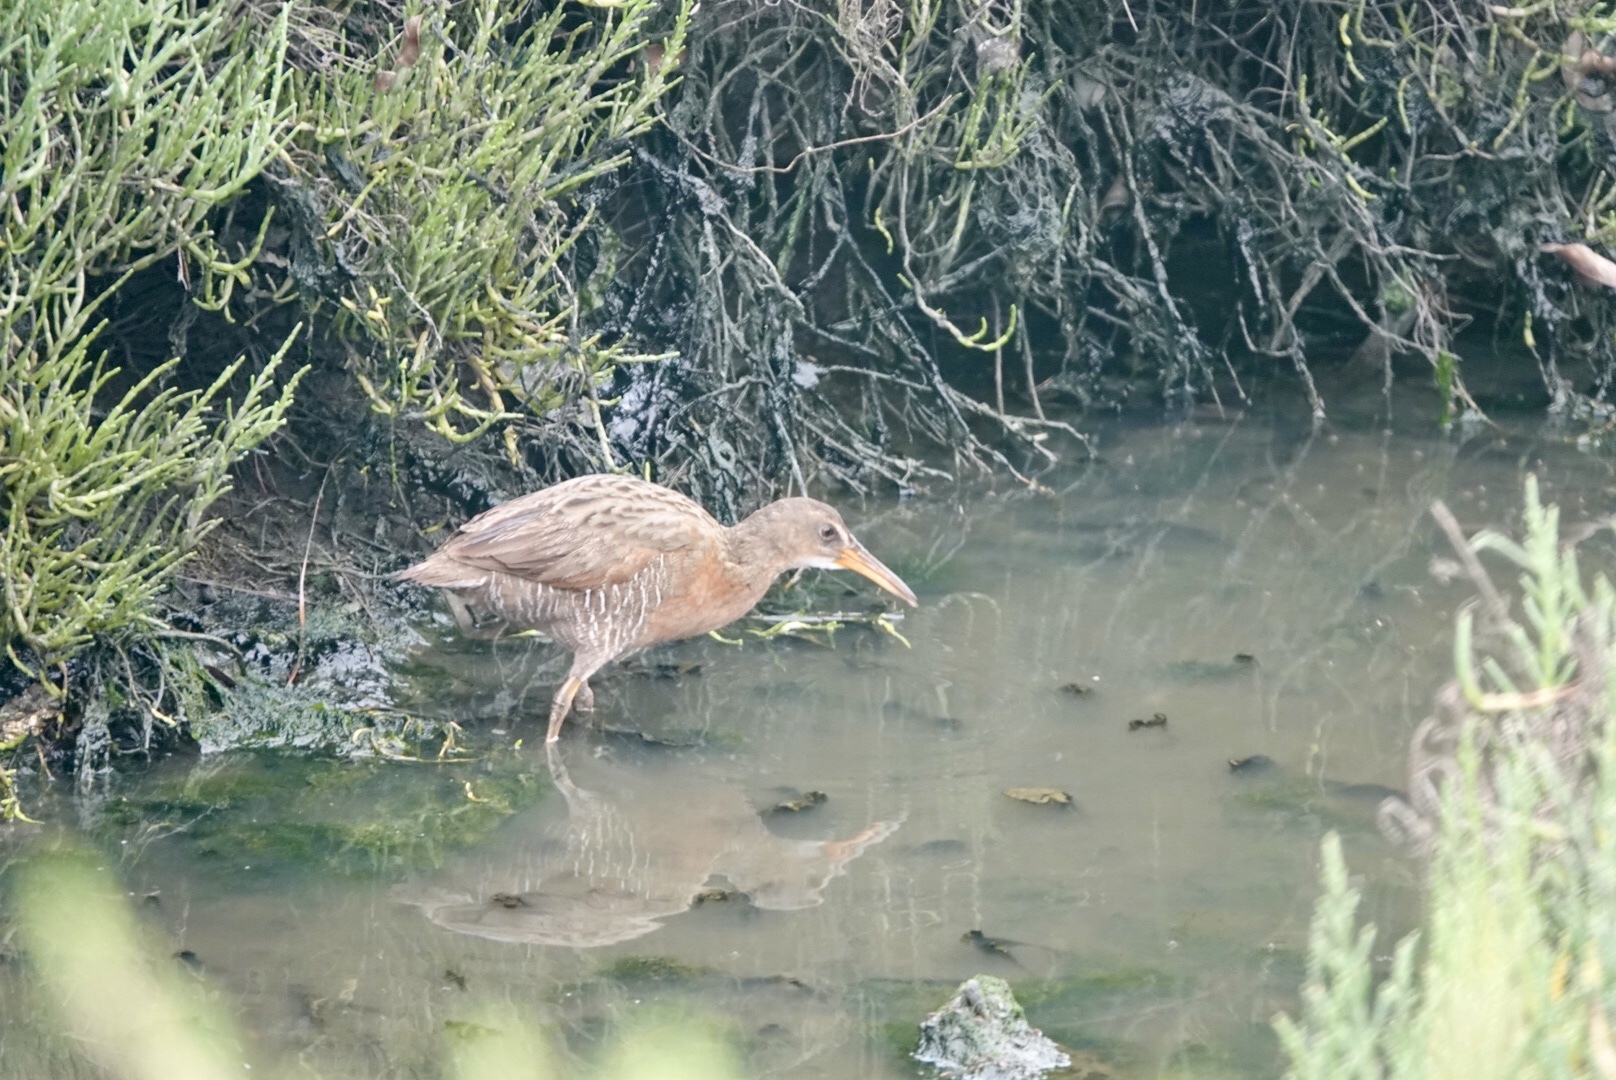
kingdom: Animalia
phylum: Chordata
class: Aves
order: Gruiformes
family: Rallidae
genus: Rallus
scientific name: Rallus obsoletus
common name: Ridgway's rail
